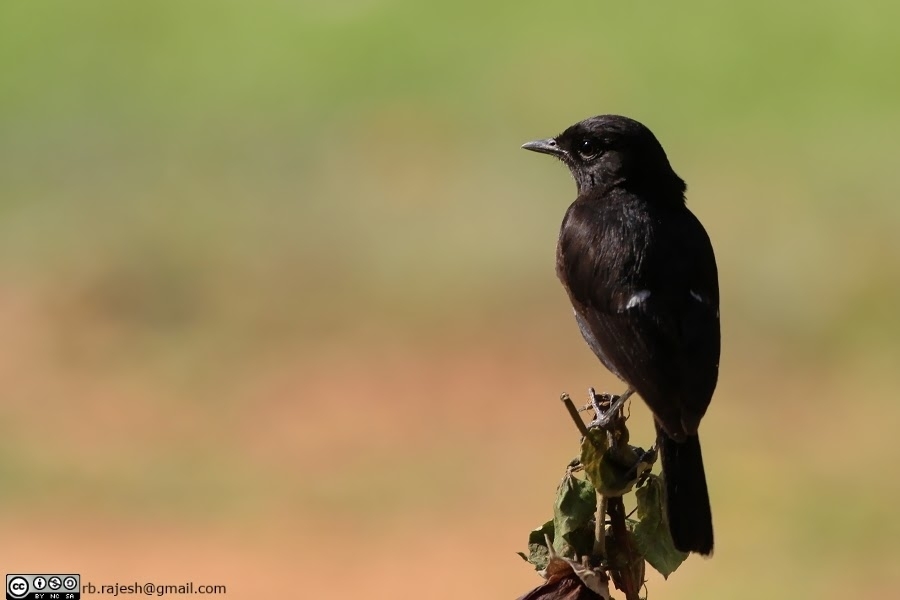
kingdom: Animalia
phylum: Chordata
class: Aves
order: Passeriformes
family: Muscicapidae
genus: Saxicola
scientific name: Saxicola caprata
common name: Pied bush chat
